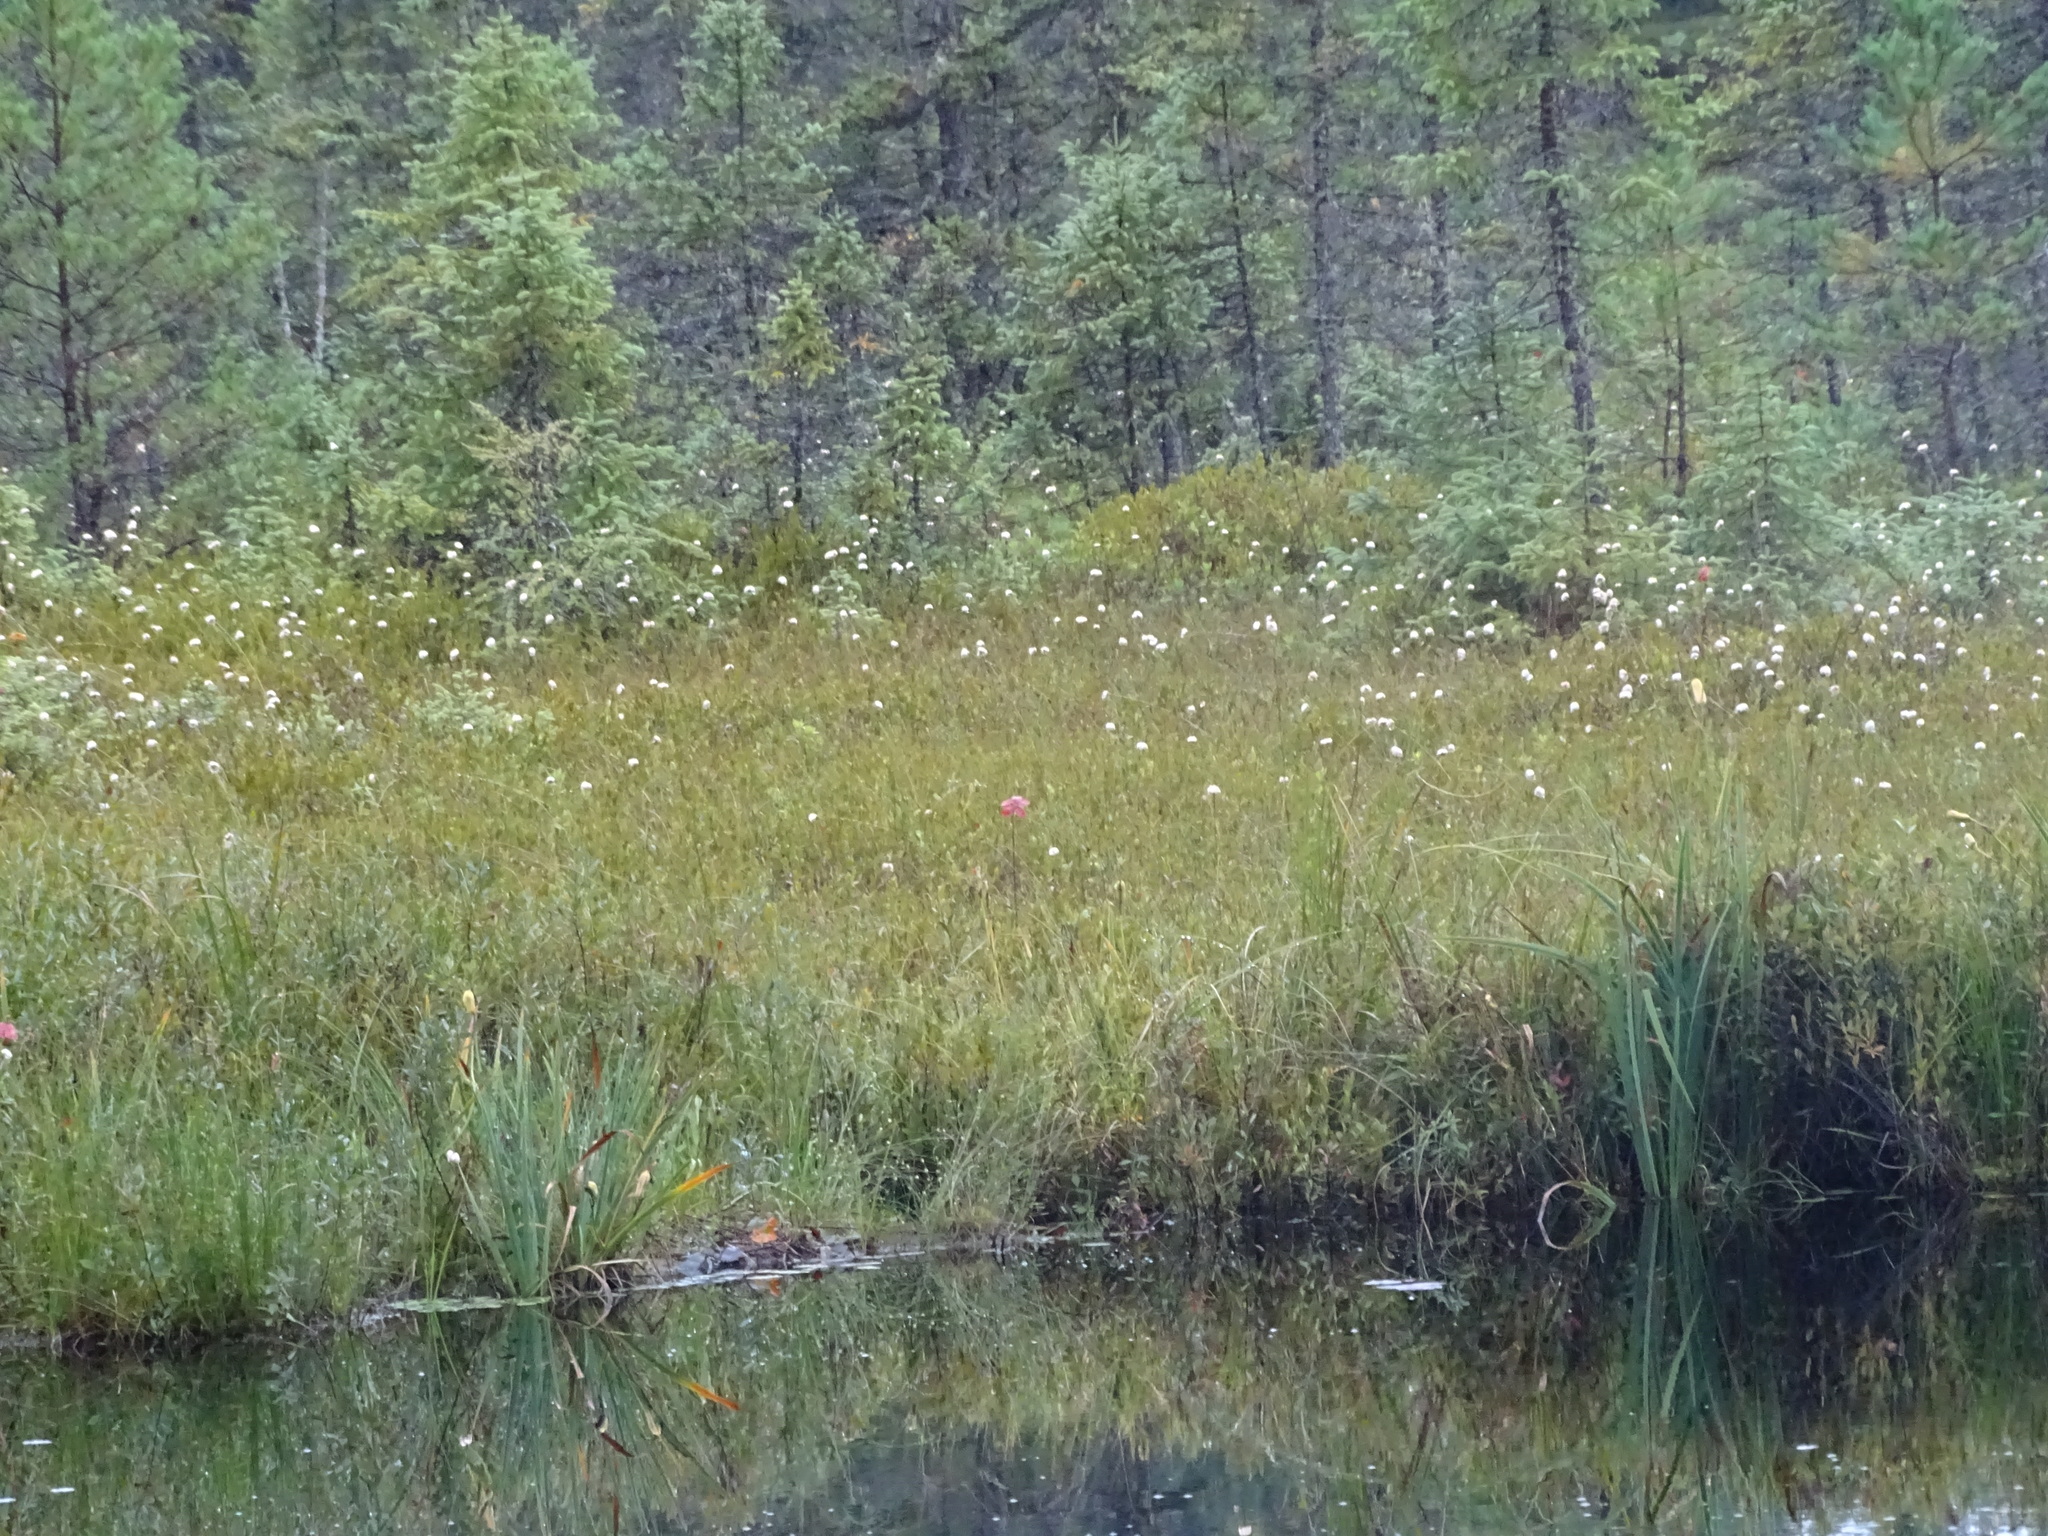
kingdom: Plantae
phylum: Tracheophyta
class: Liliopsida
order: Poales
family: Cyperaceae
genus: Eriophorum
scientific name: Eriophorum virginicum
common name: Tawny cottongrass
